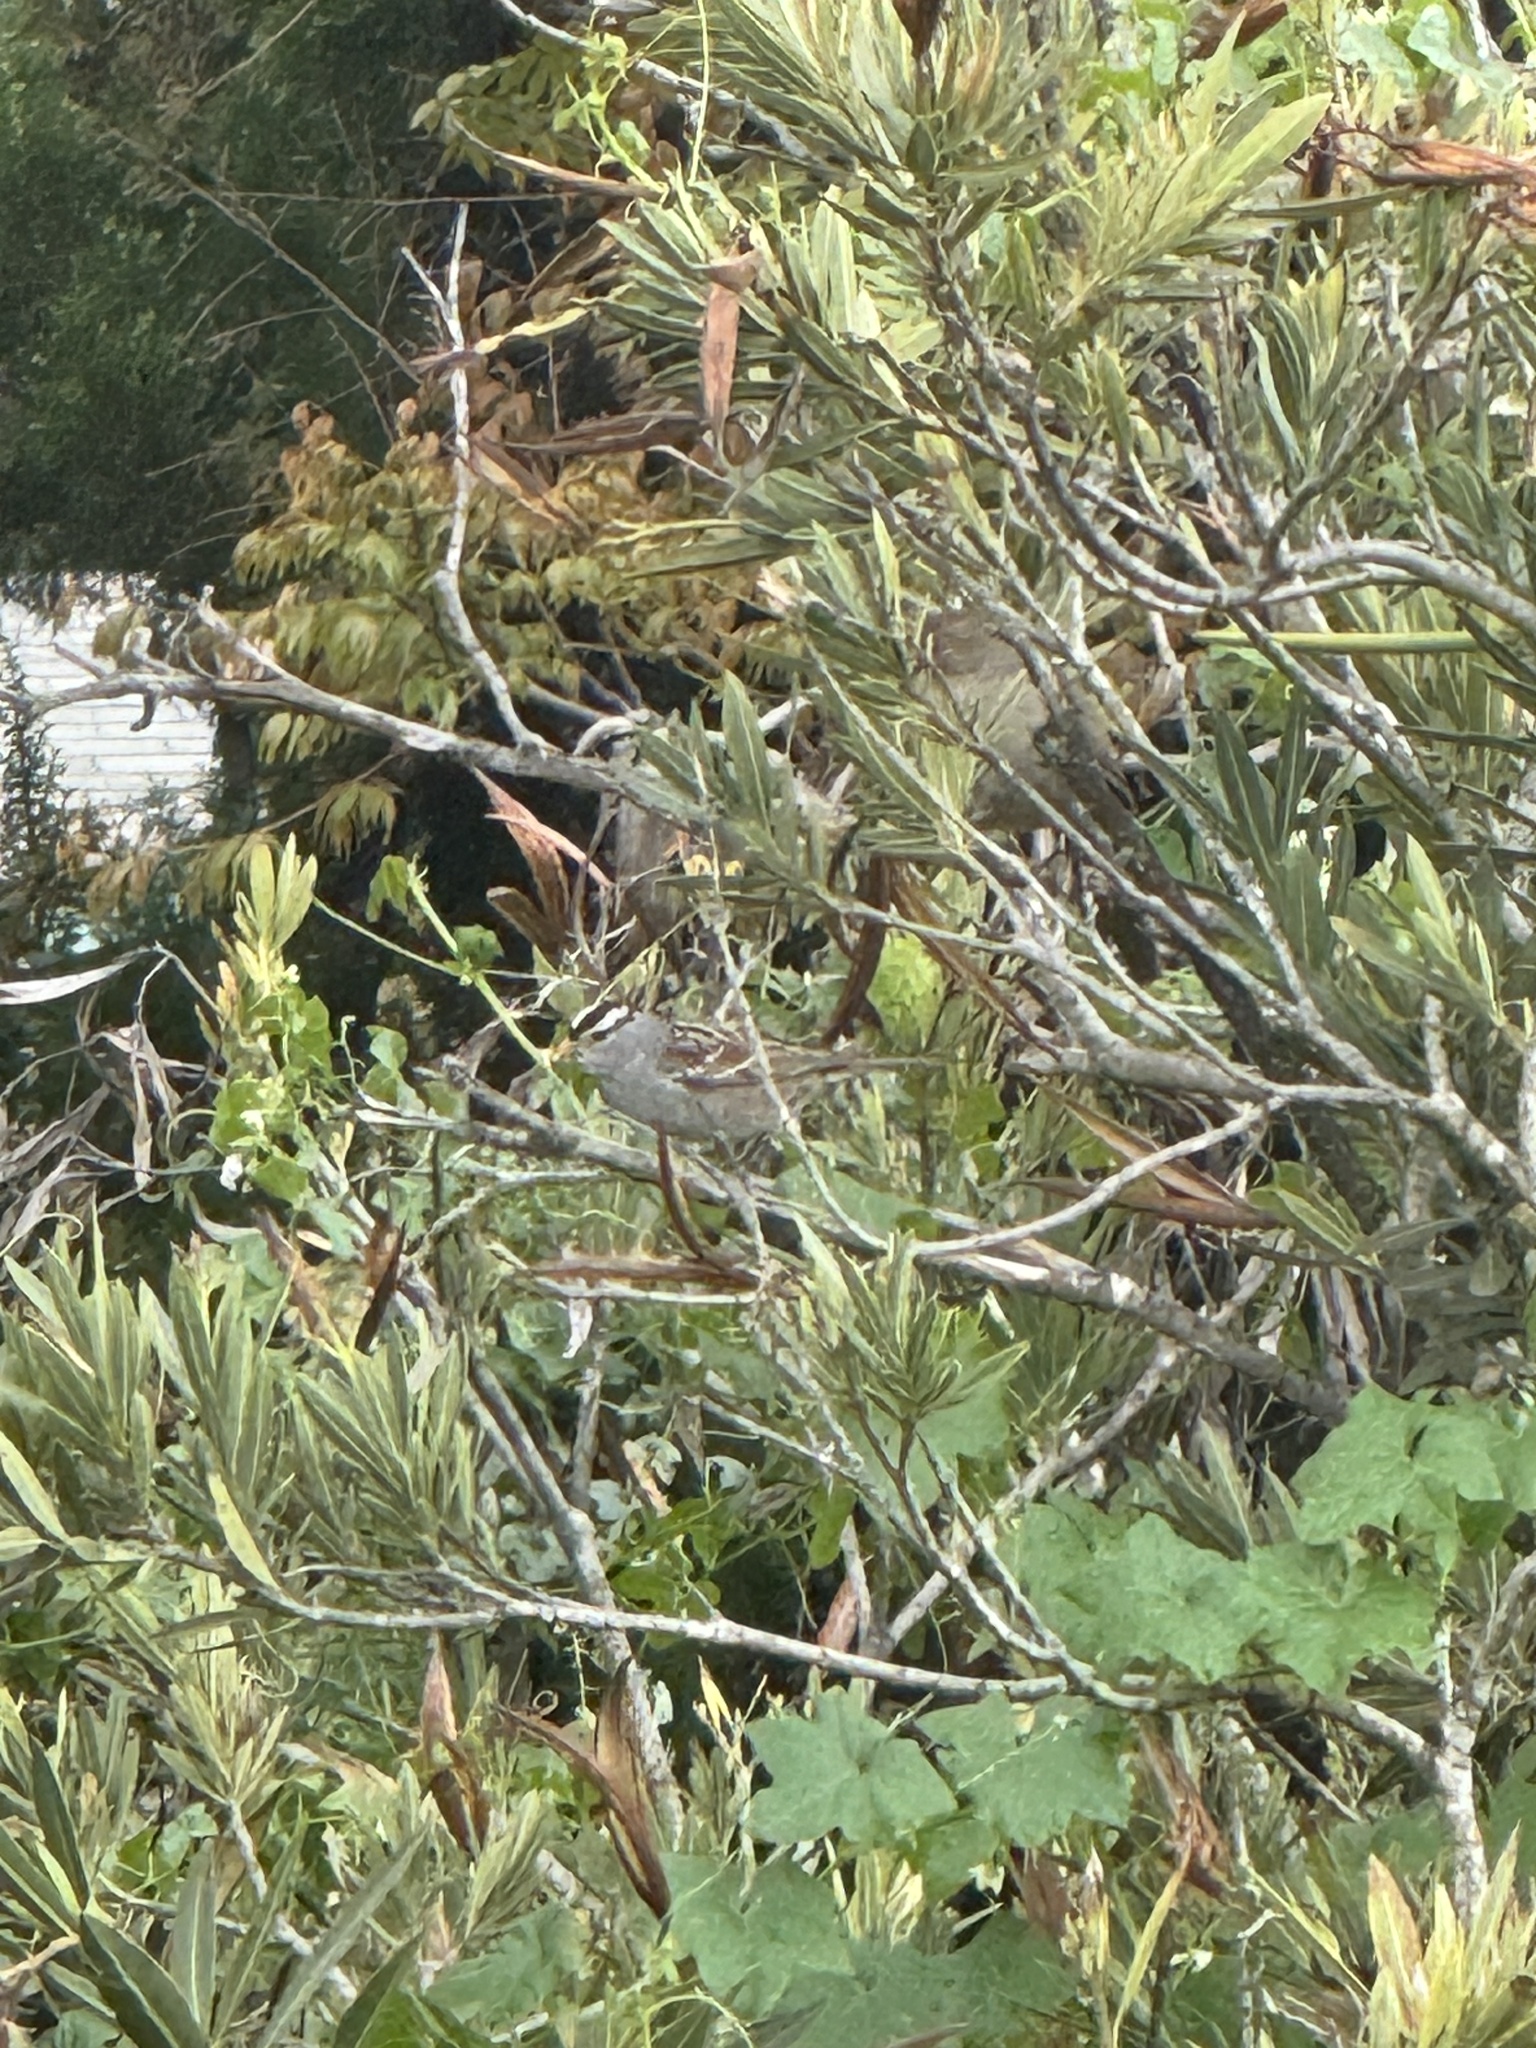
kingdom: Animalia
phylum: Chordata
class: Aves
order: Passeriformes
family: Passerellidae
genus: Zonotrichia
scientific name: Zonotrichia leucophrys
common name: White-crowned sparrow
